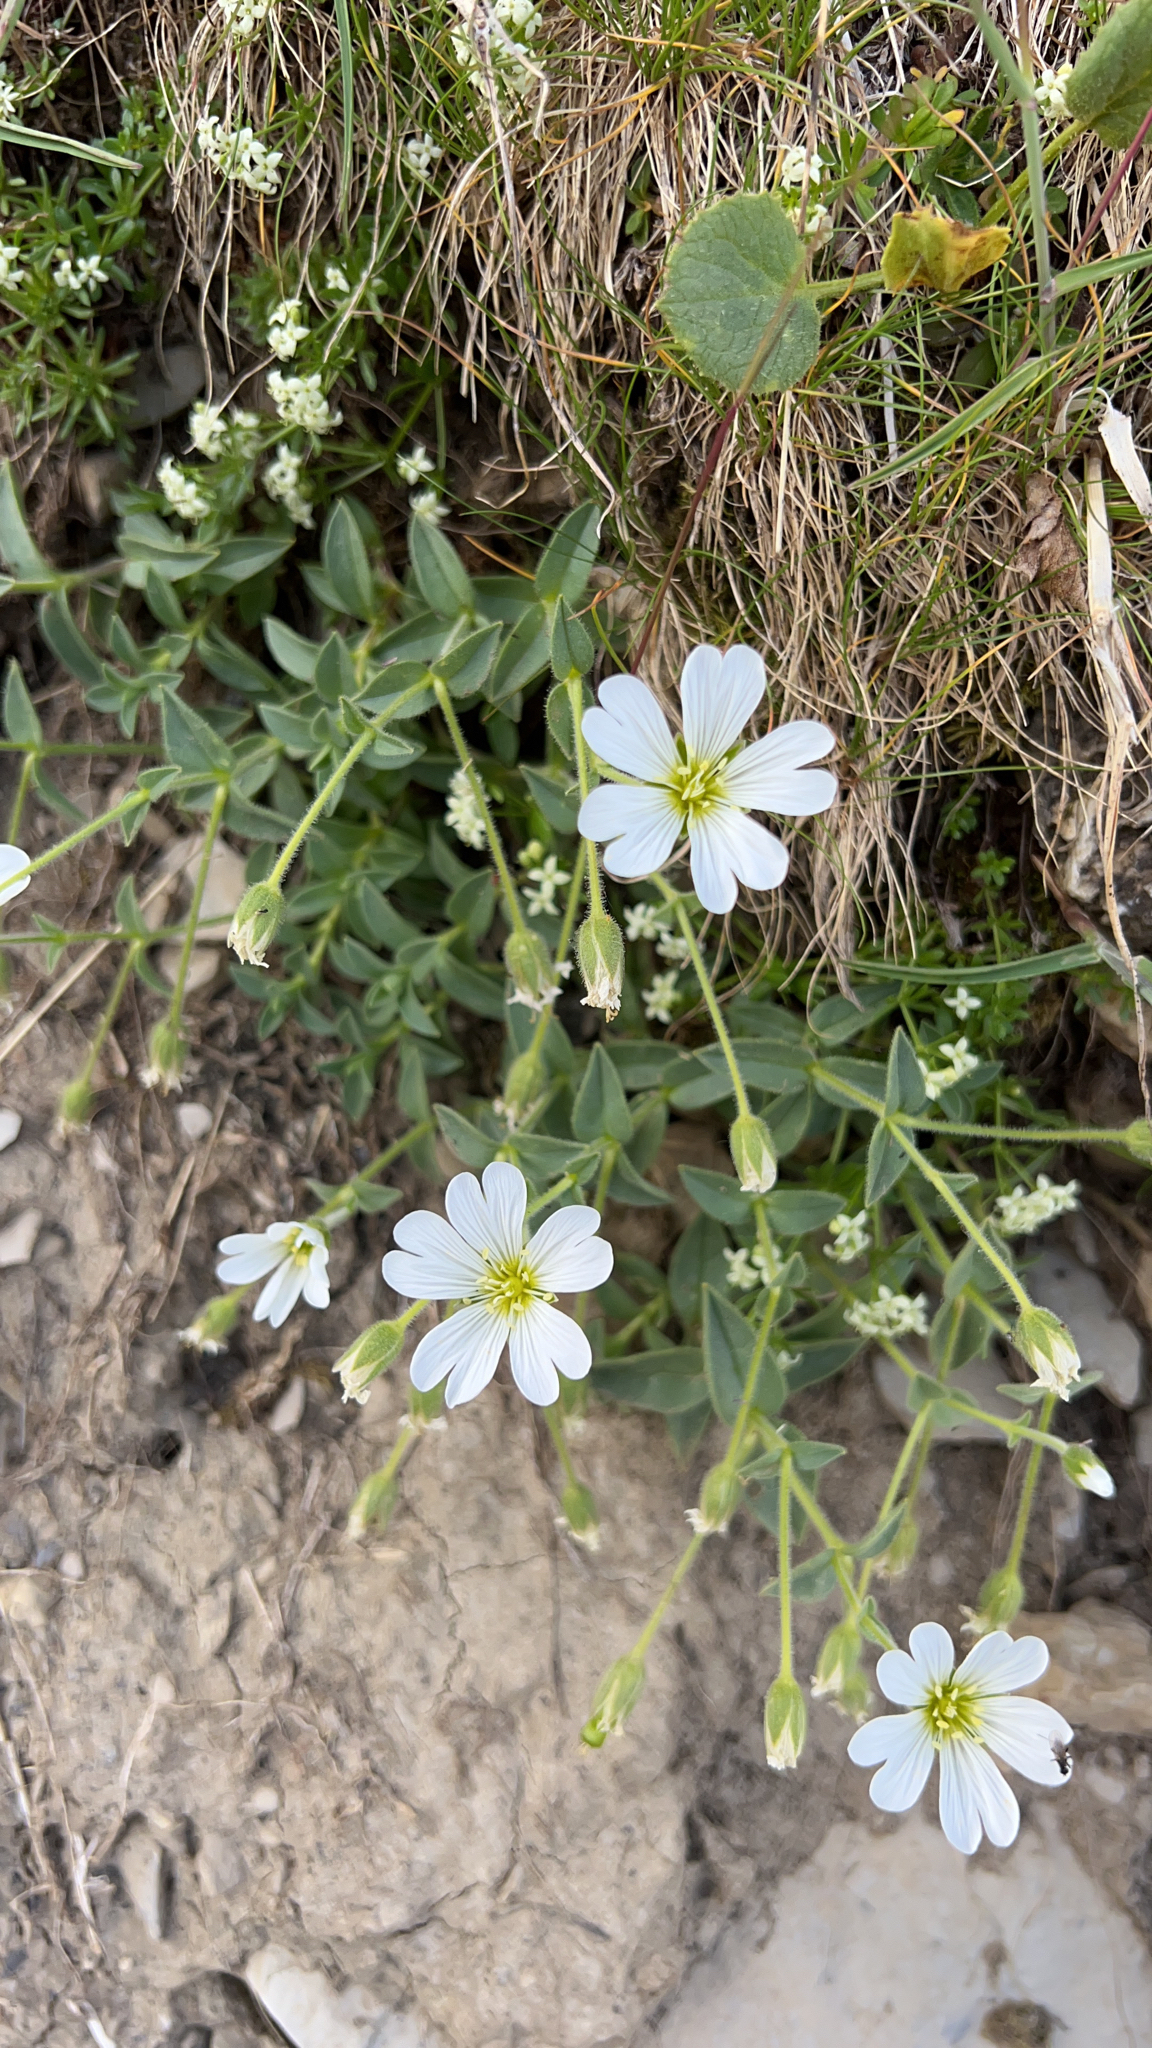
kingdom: Plantae
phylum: Tracheophyta
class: Magnoliopsida
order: Caryophyllales
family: Caryophyllaceae
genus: Cerastium
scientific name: Cerastium arvense
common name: Field mouse-ear
